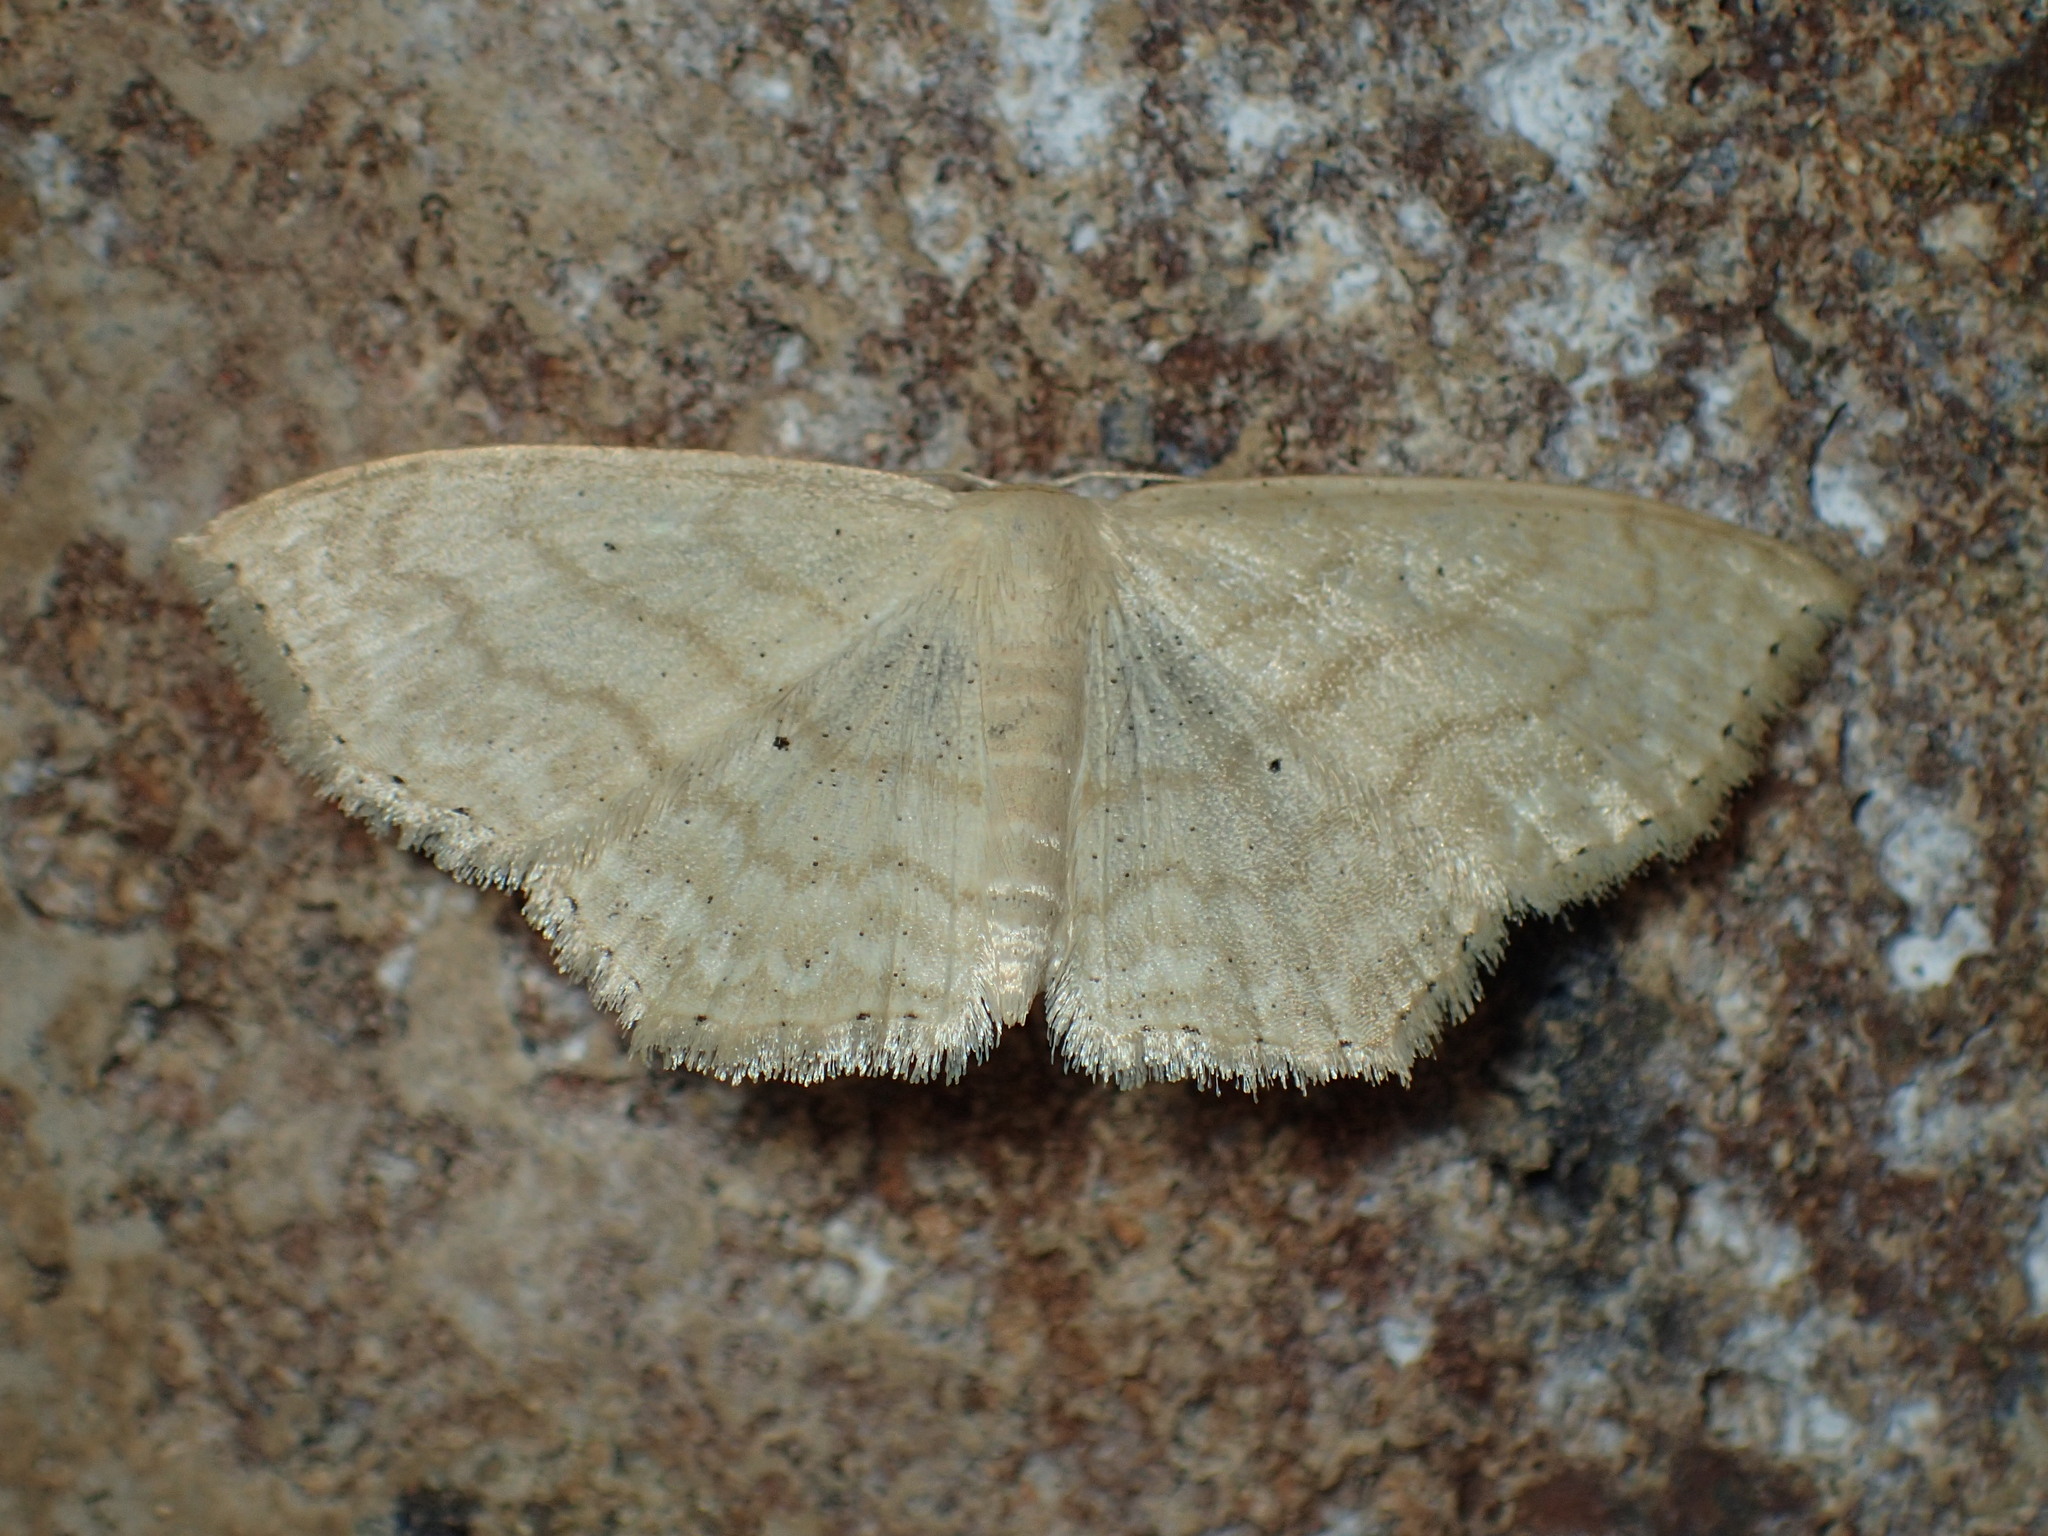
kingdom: Animalia
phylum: Arthropoda
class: Insecta
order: Lepidoptera
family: Geometridae
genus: Scopula
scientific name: Scopula limboundata
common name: Large lace border
